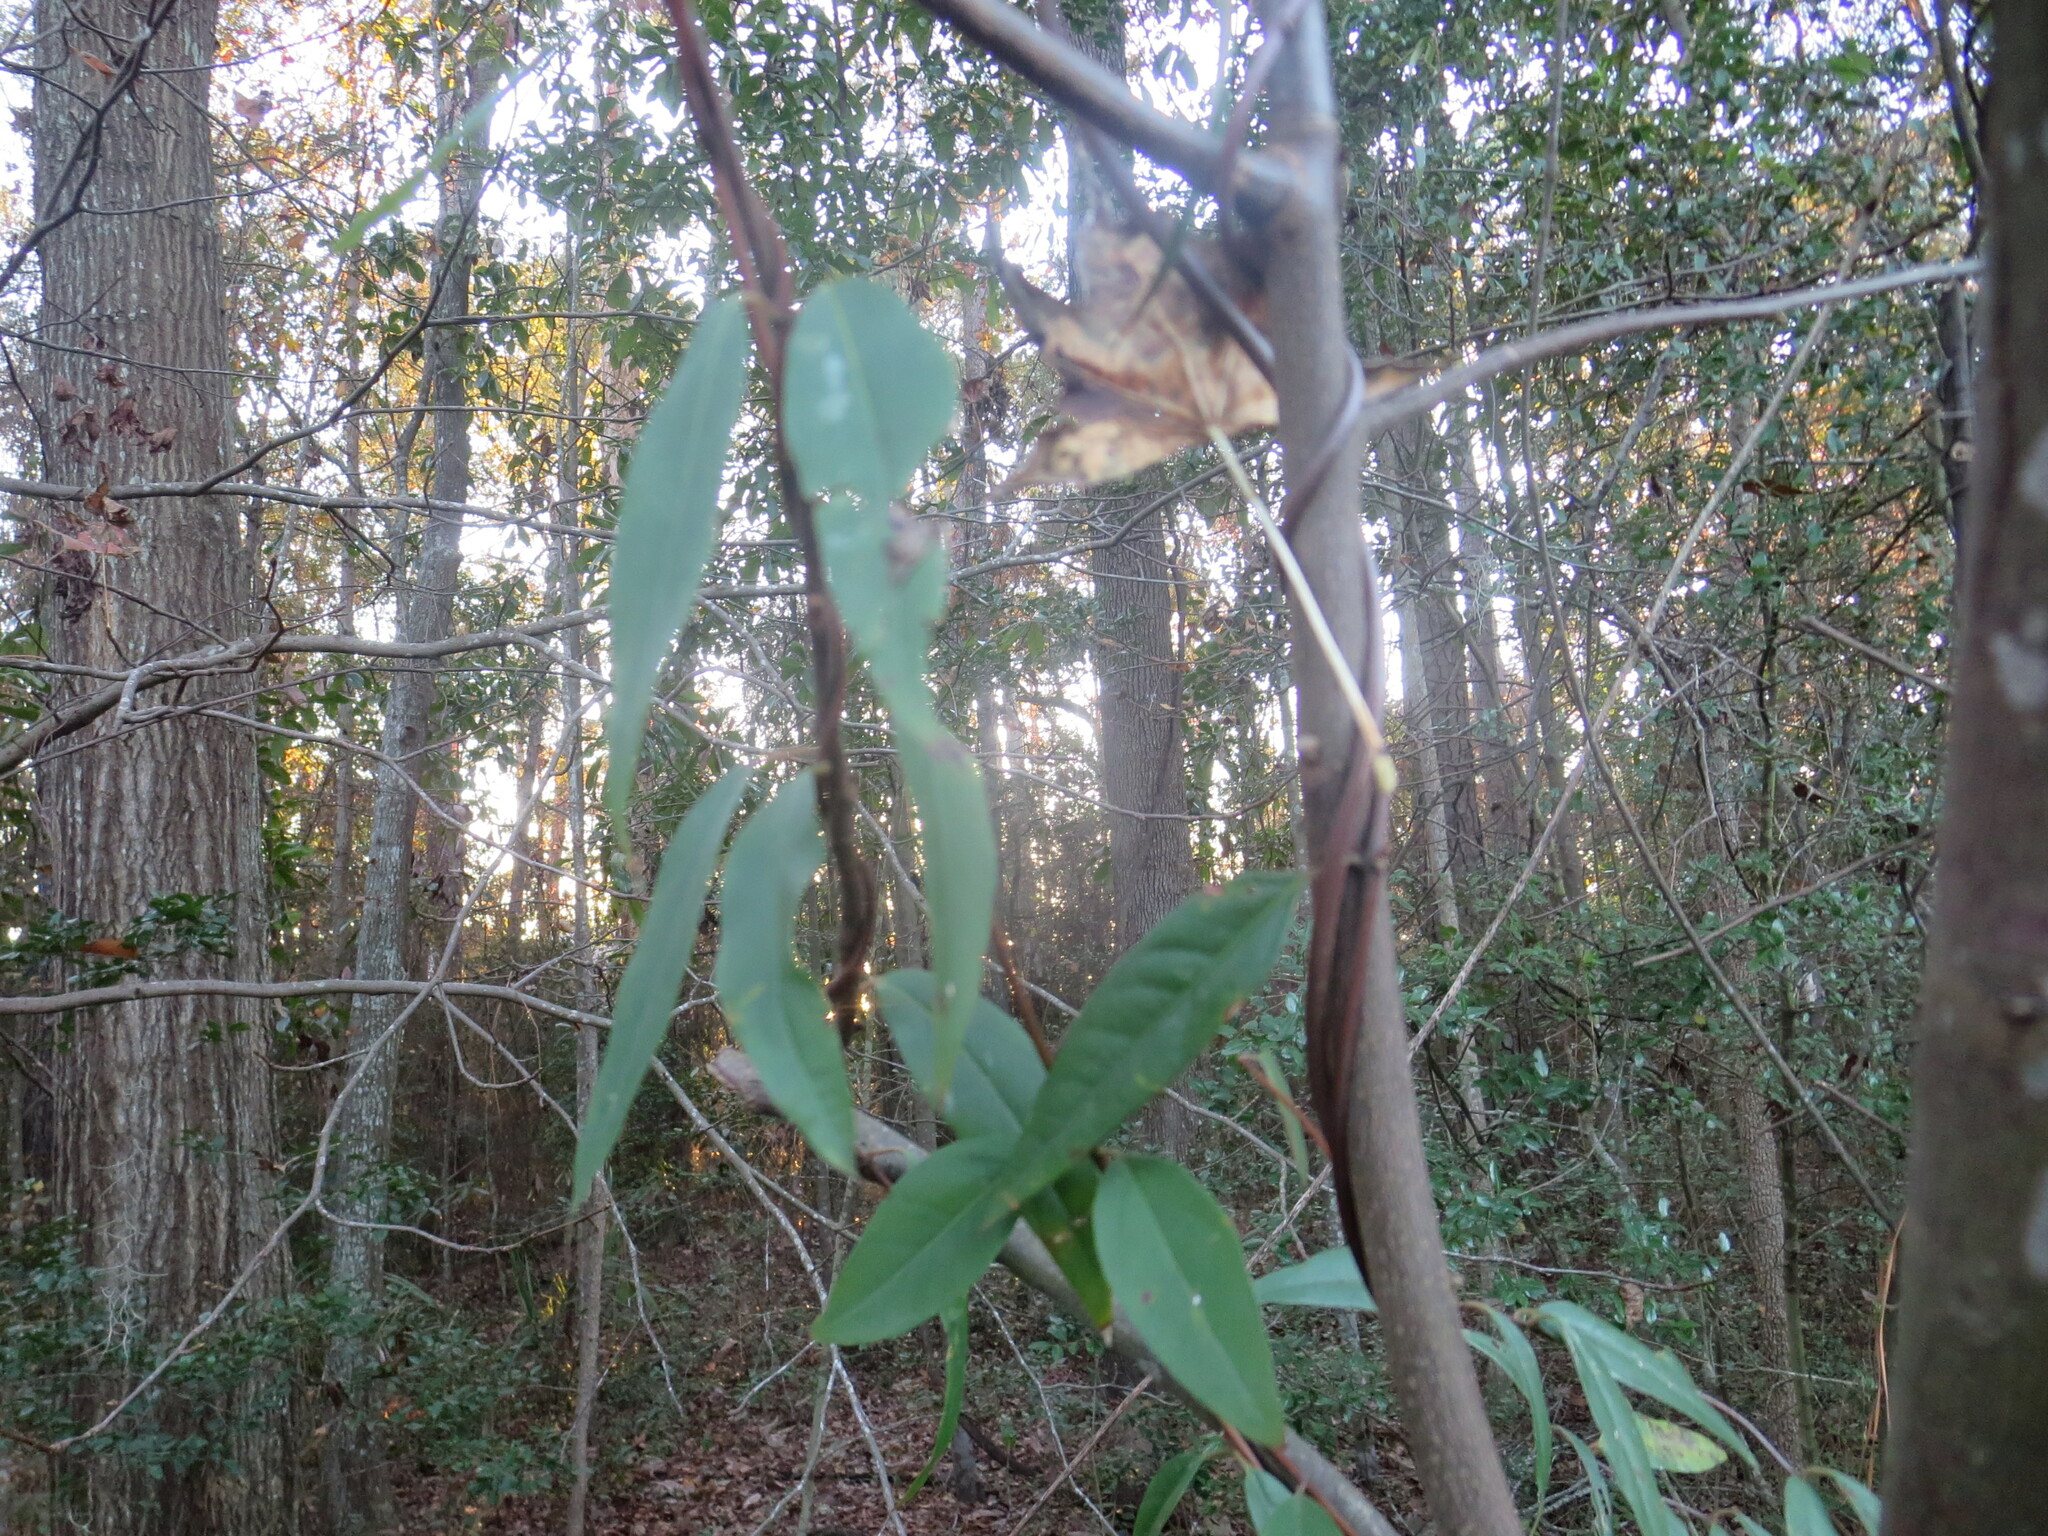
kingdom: Plantae
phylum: Tracheophyta
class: Magnoliopsida
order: Gentianales
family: Gelsemiaceae
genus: Gelsemium
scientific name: Gelsemium sempervirens
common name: Carolina-jasmine
